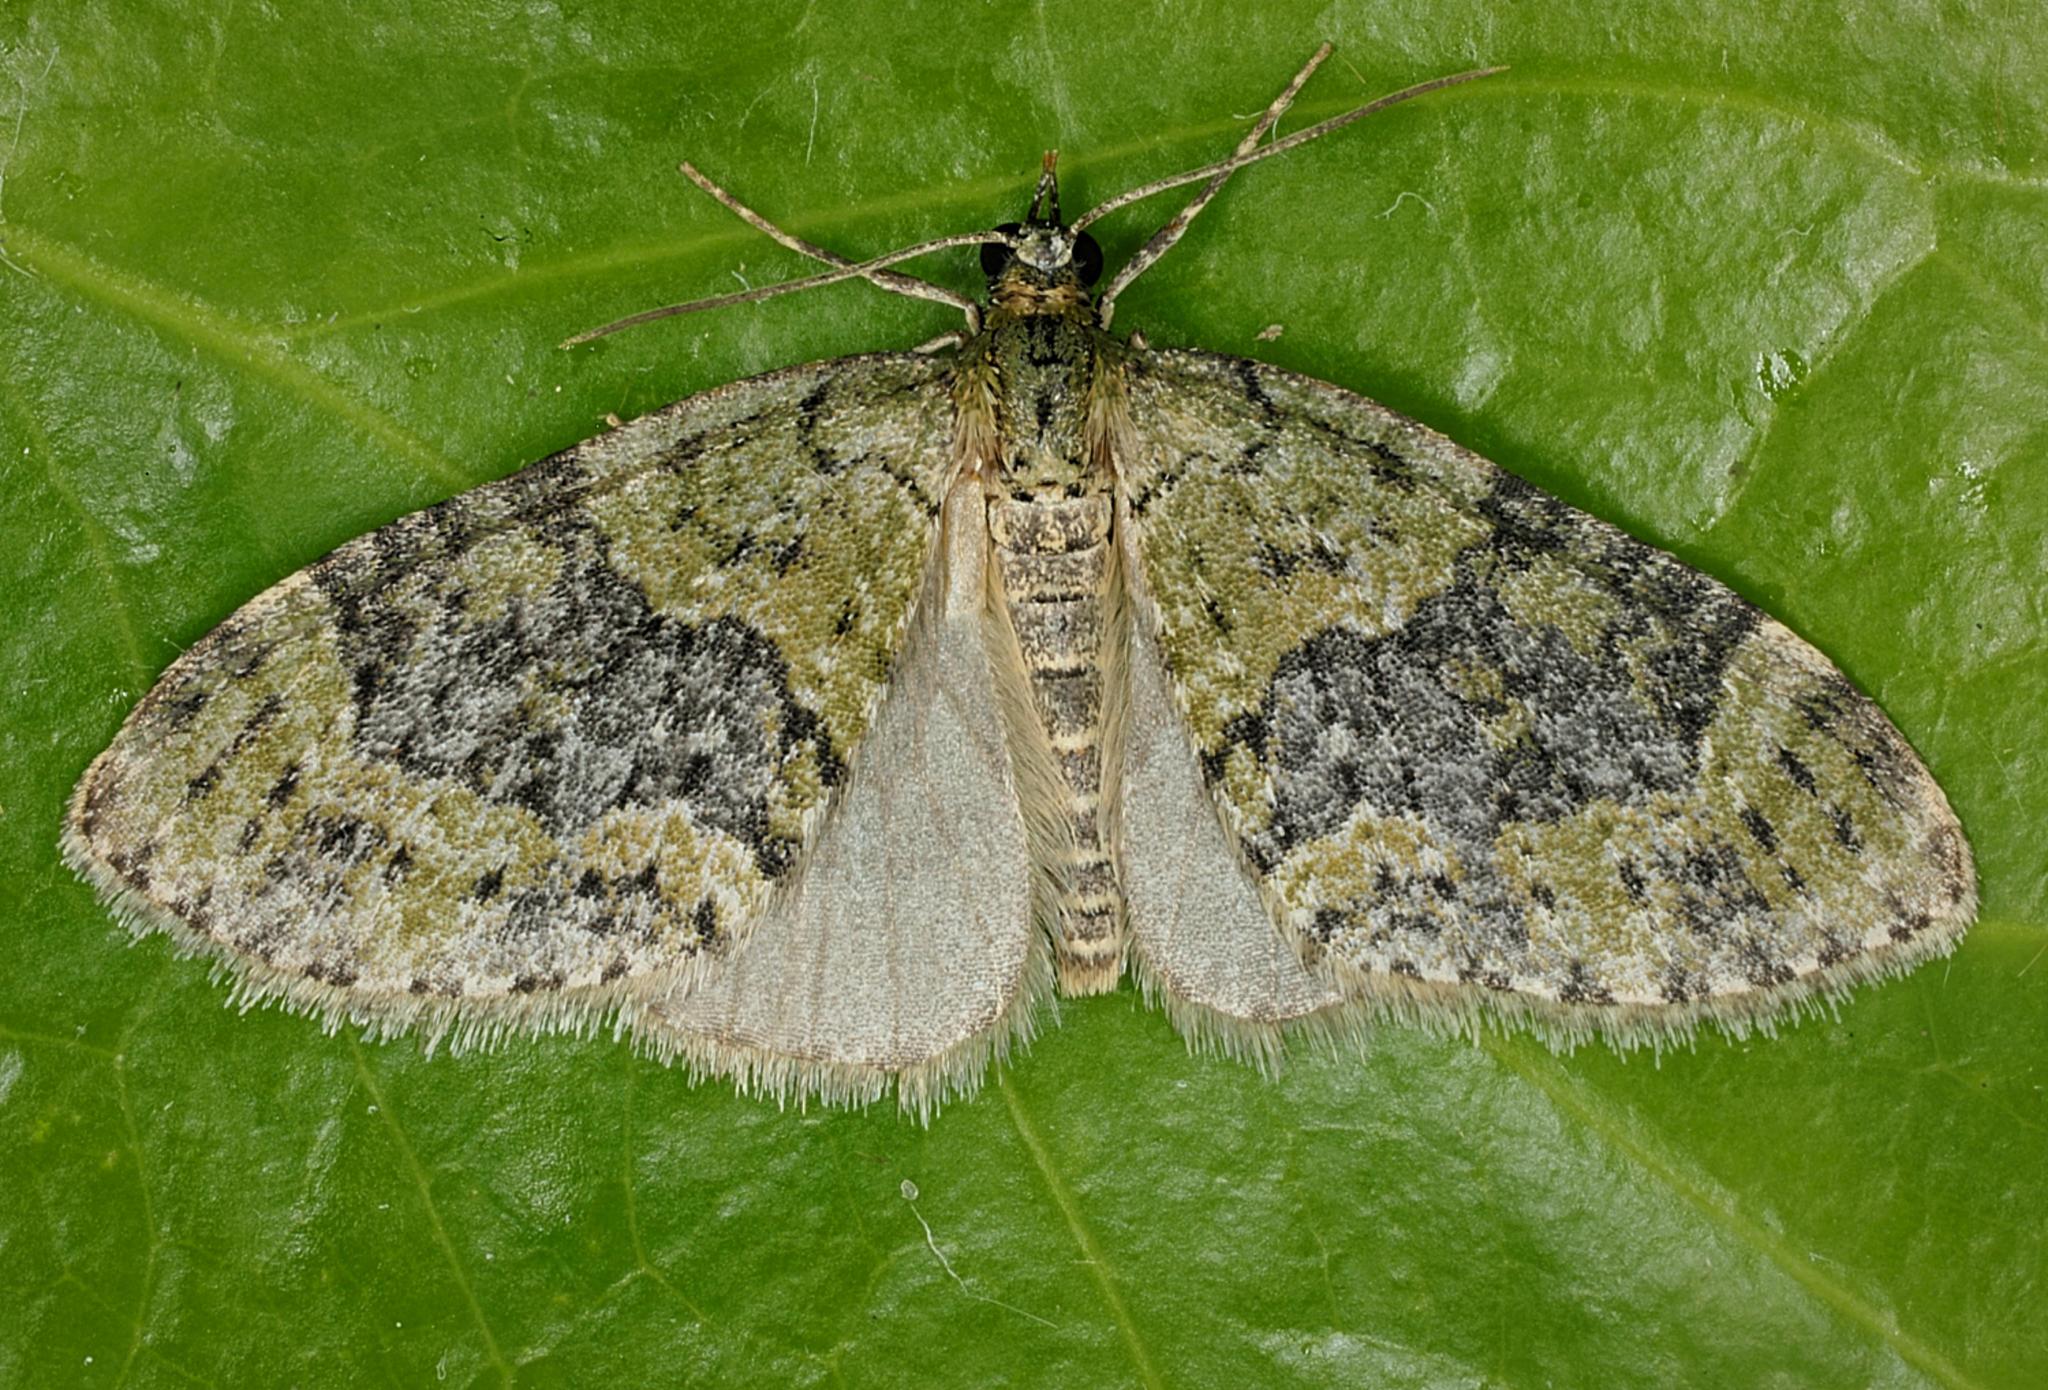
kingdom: Animalia
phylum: Arthropoda
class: Insecta
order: Lepidoptera
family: Geometridae
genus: Acasis
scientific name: Acasis viretata
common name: Yellow-barred brindle
